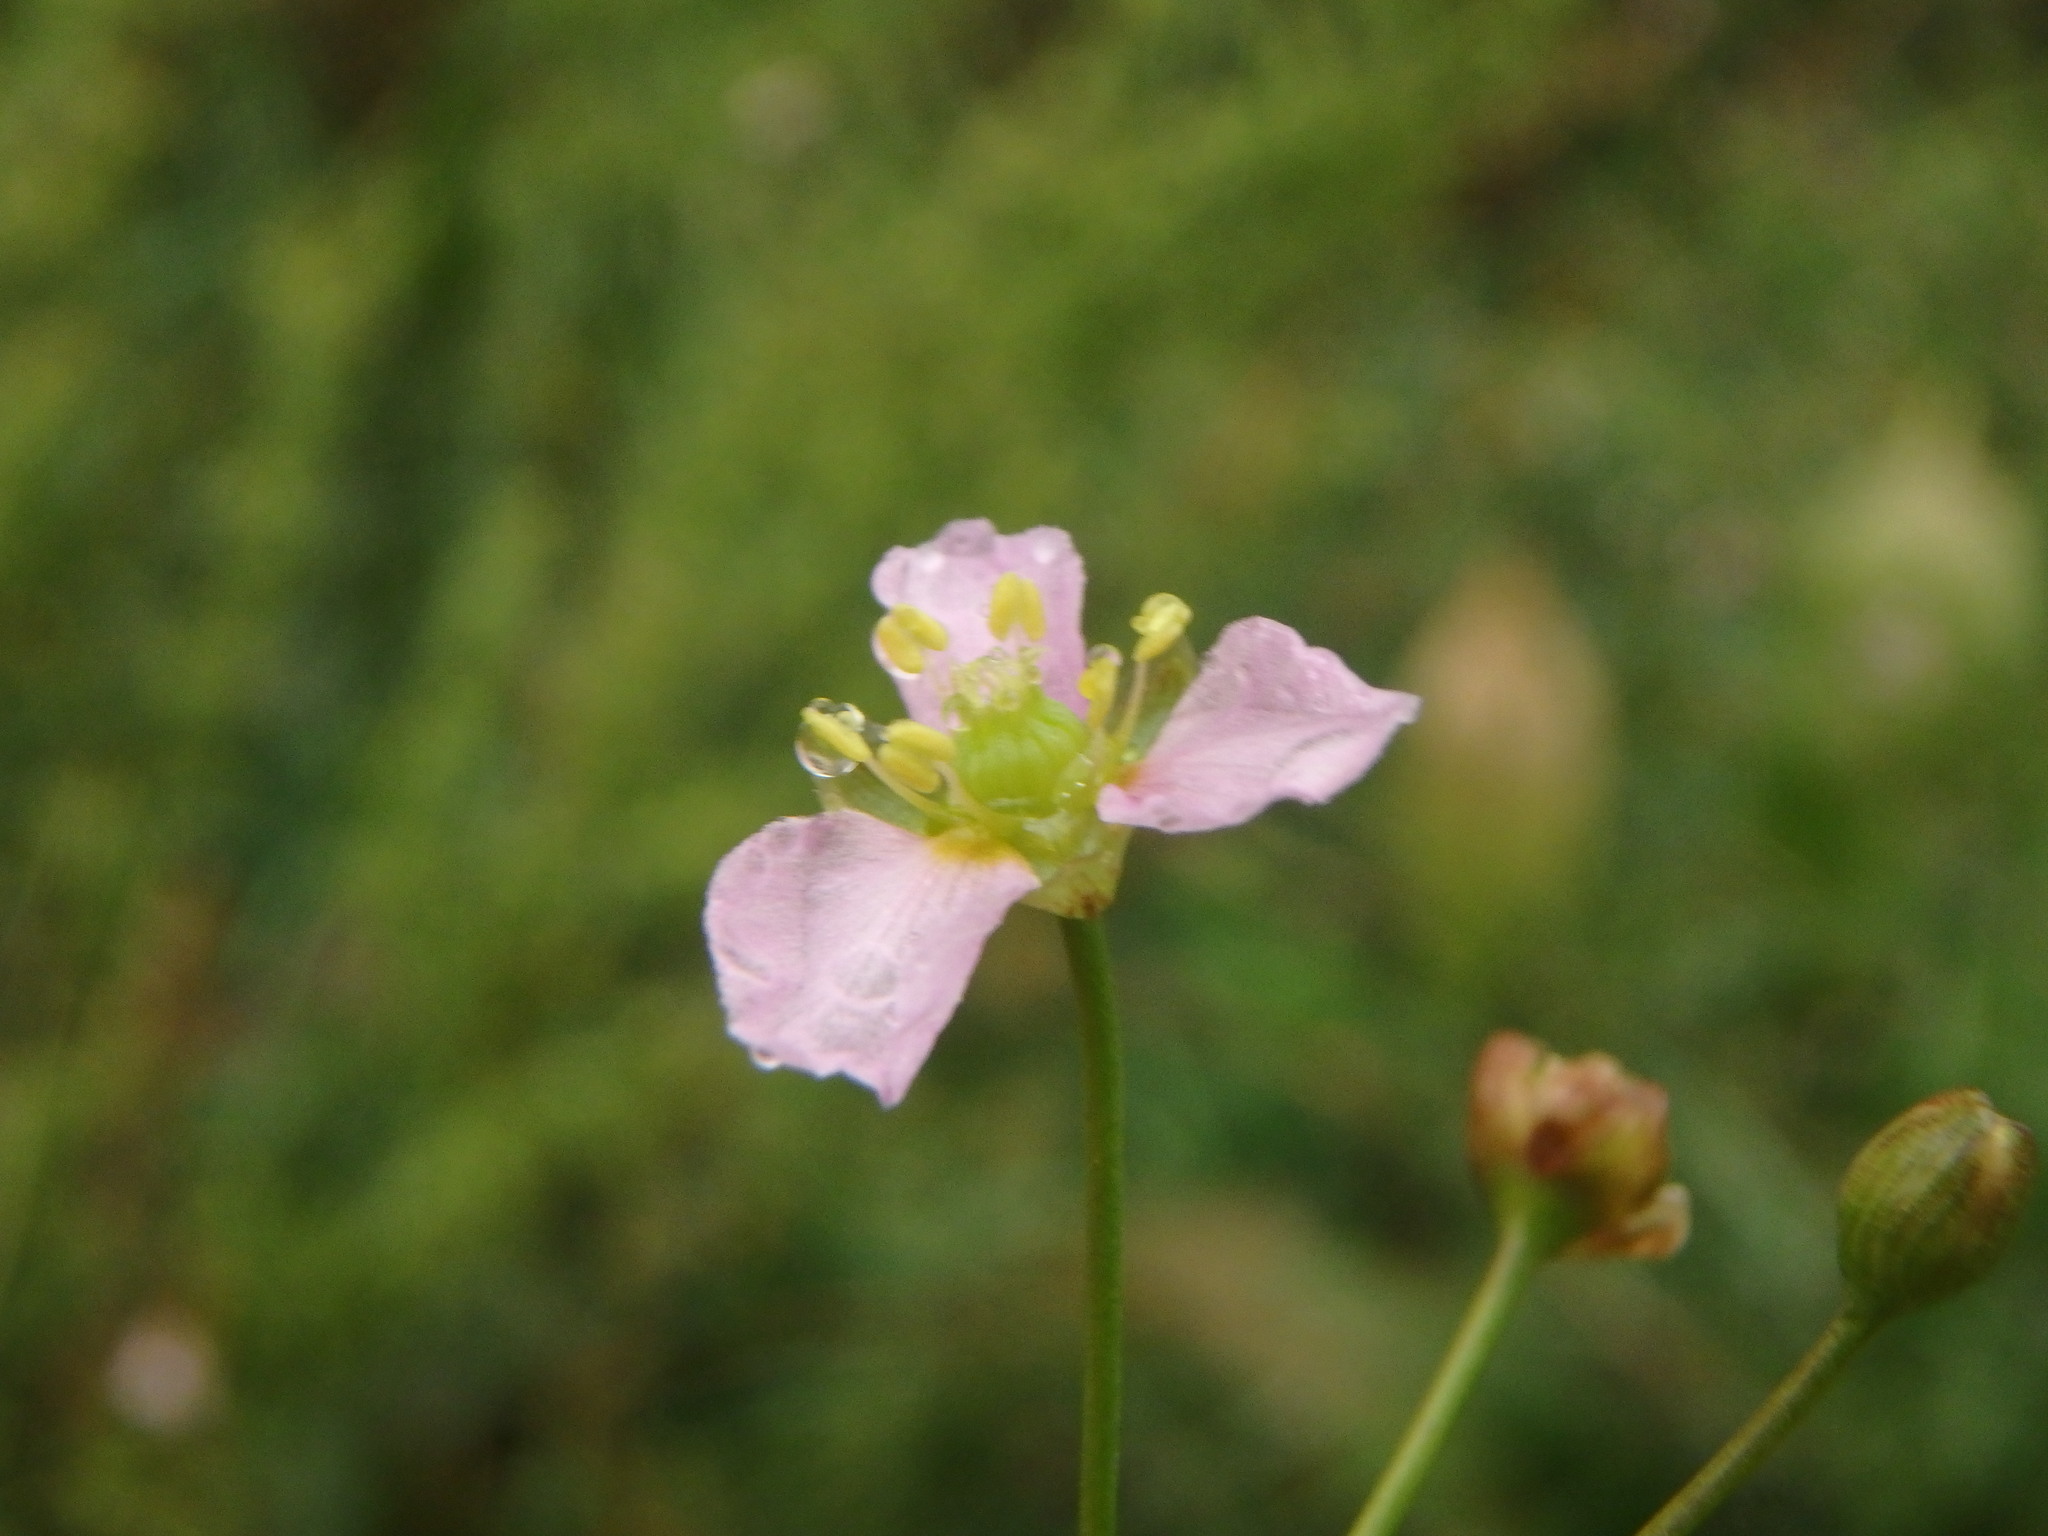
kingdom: Plantae
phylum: Tracheophyta
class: Liliopsida
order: Alismatales
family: Alismataceae
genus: Alisma
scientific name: Alisma lanceolatum
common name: Narrow-leaved water-plantain
